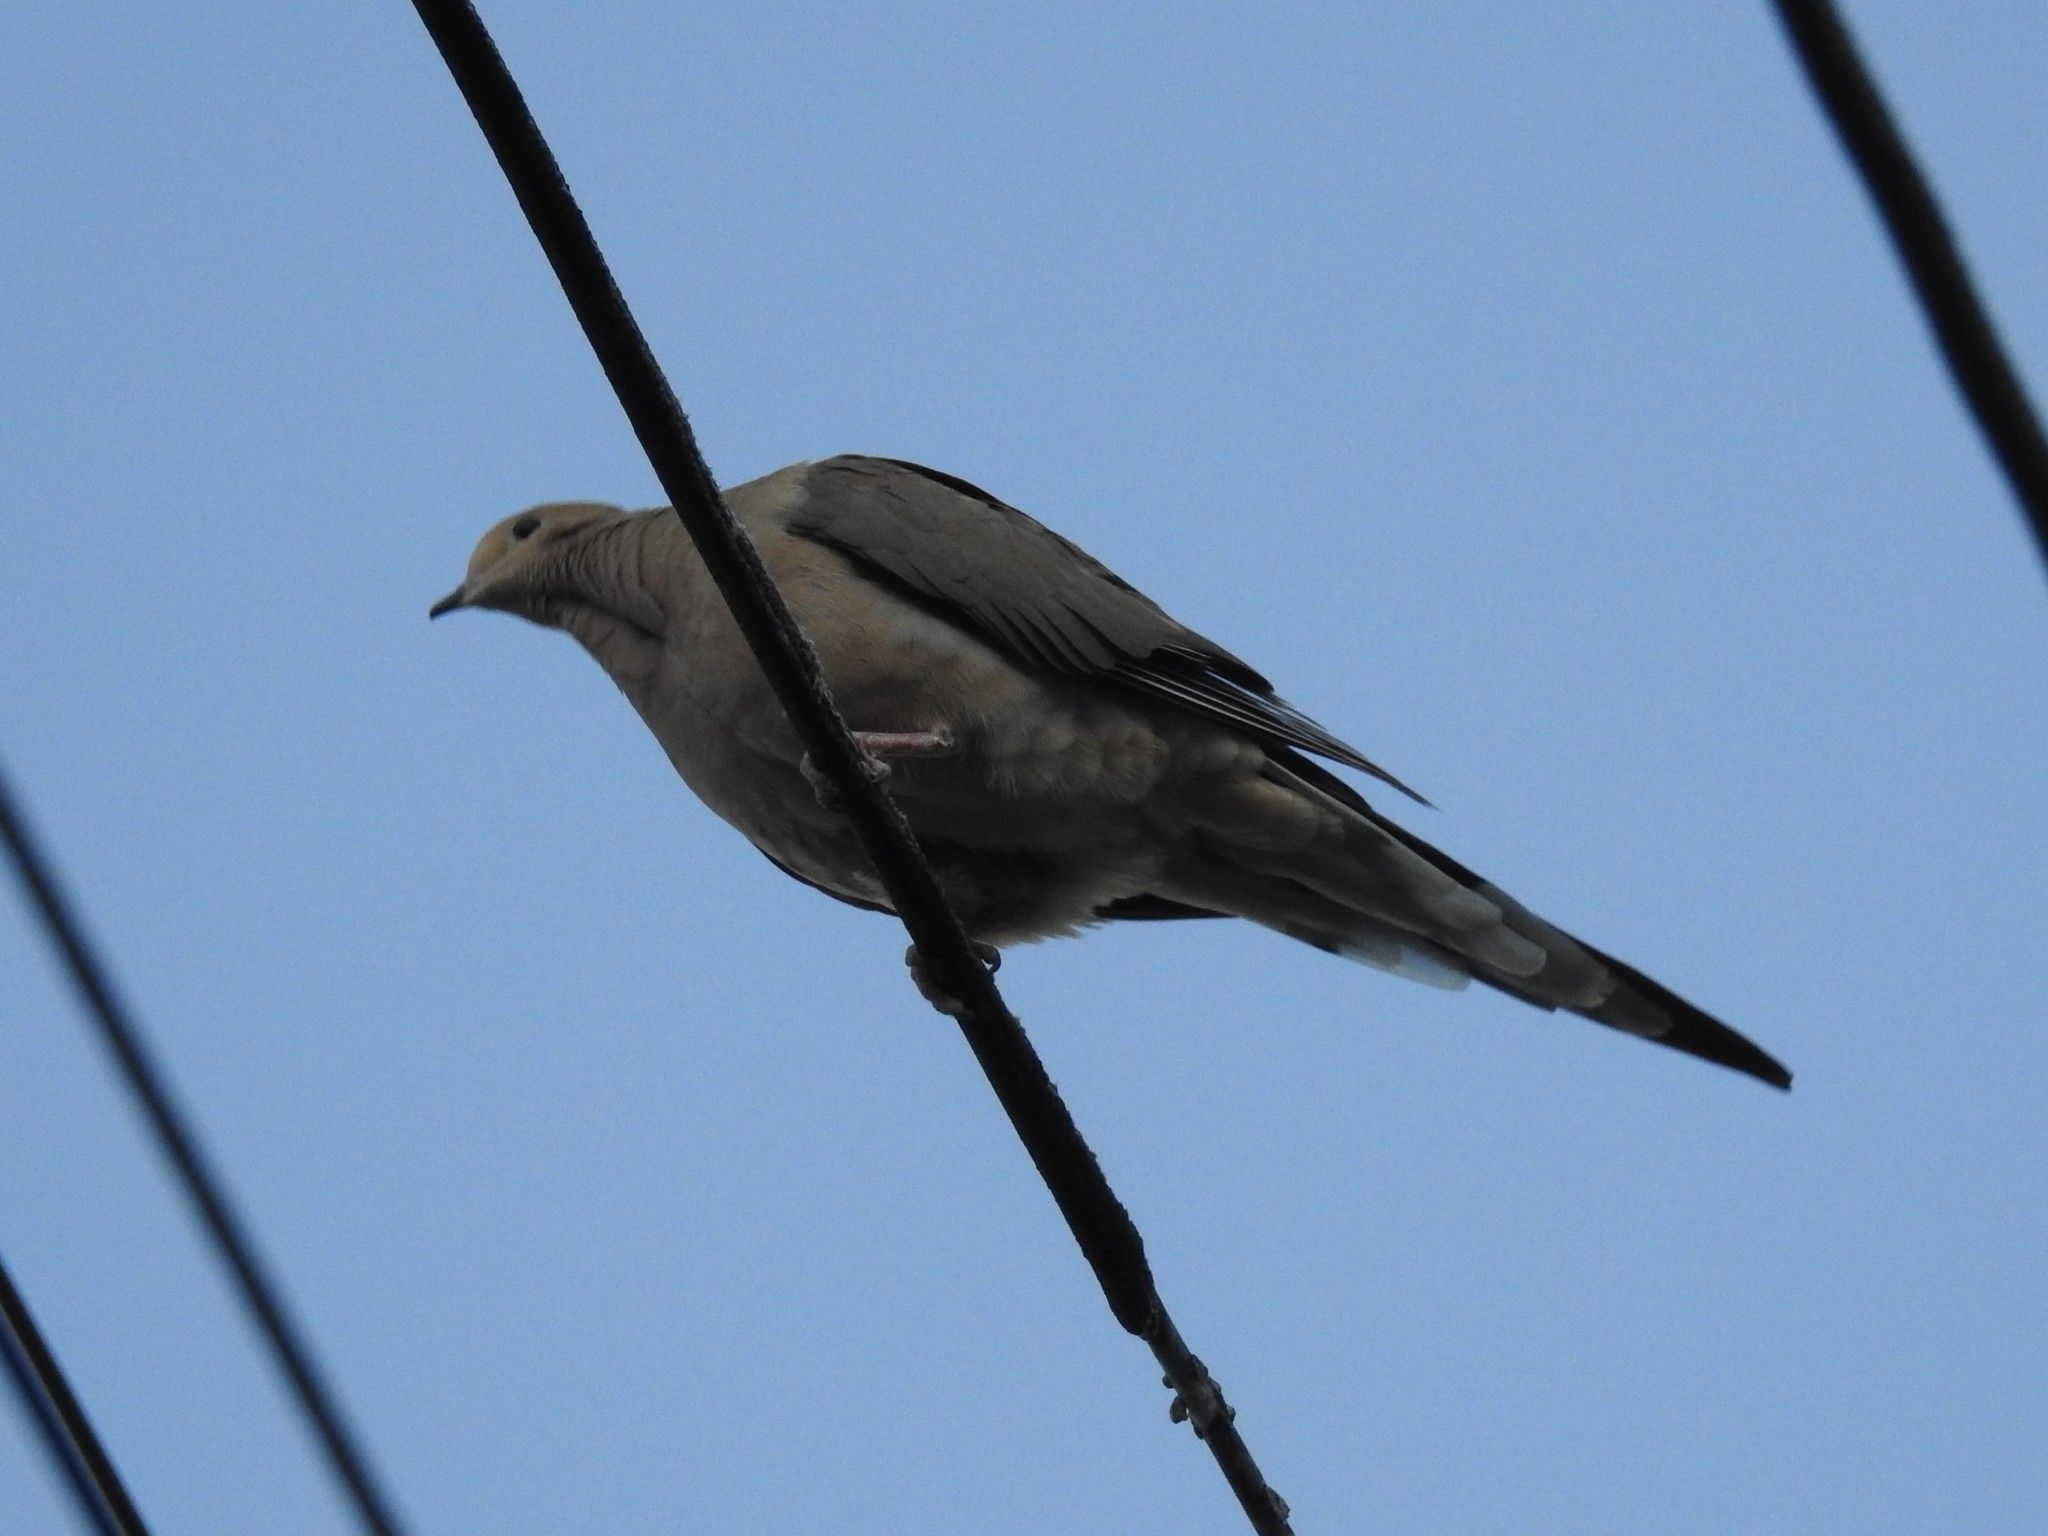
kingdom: Animalia
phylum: Chordata
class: Aves
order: Columbiformes
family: Columbidae
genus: Zenaida
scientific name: Zenaida macroura
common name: Mourning dove
